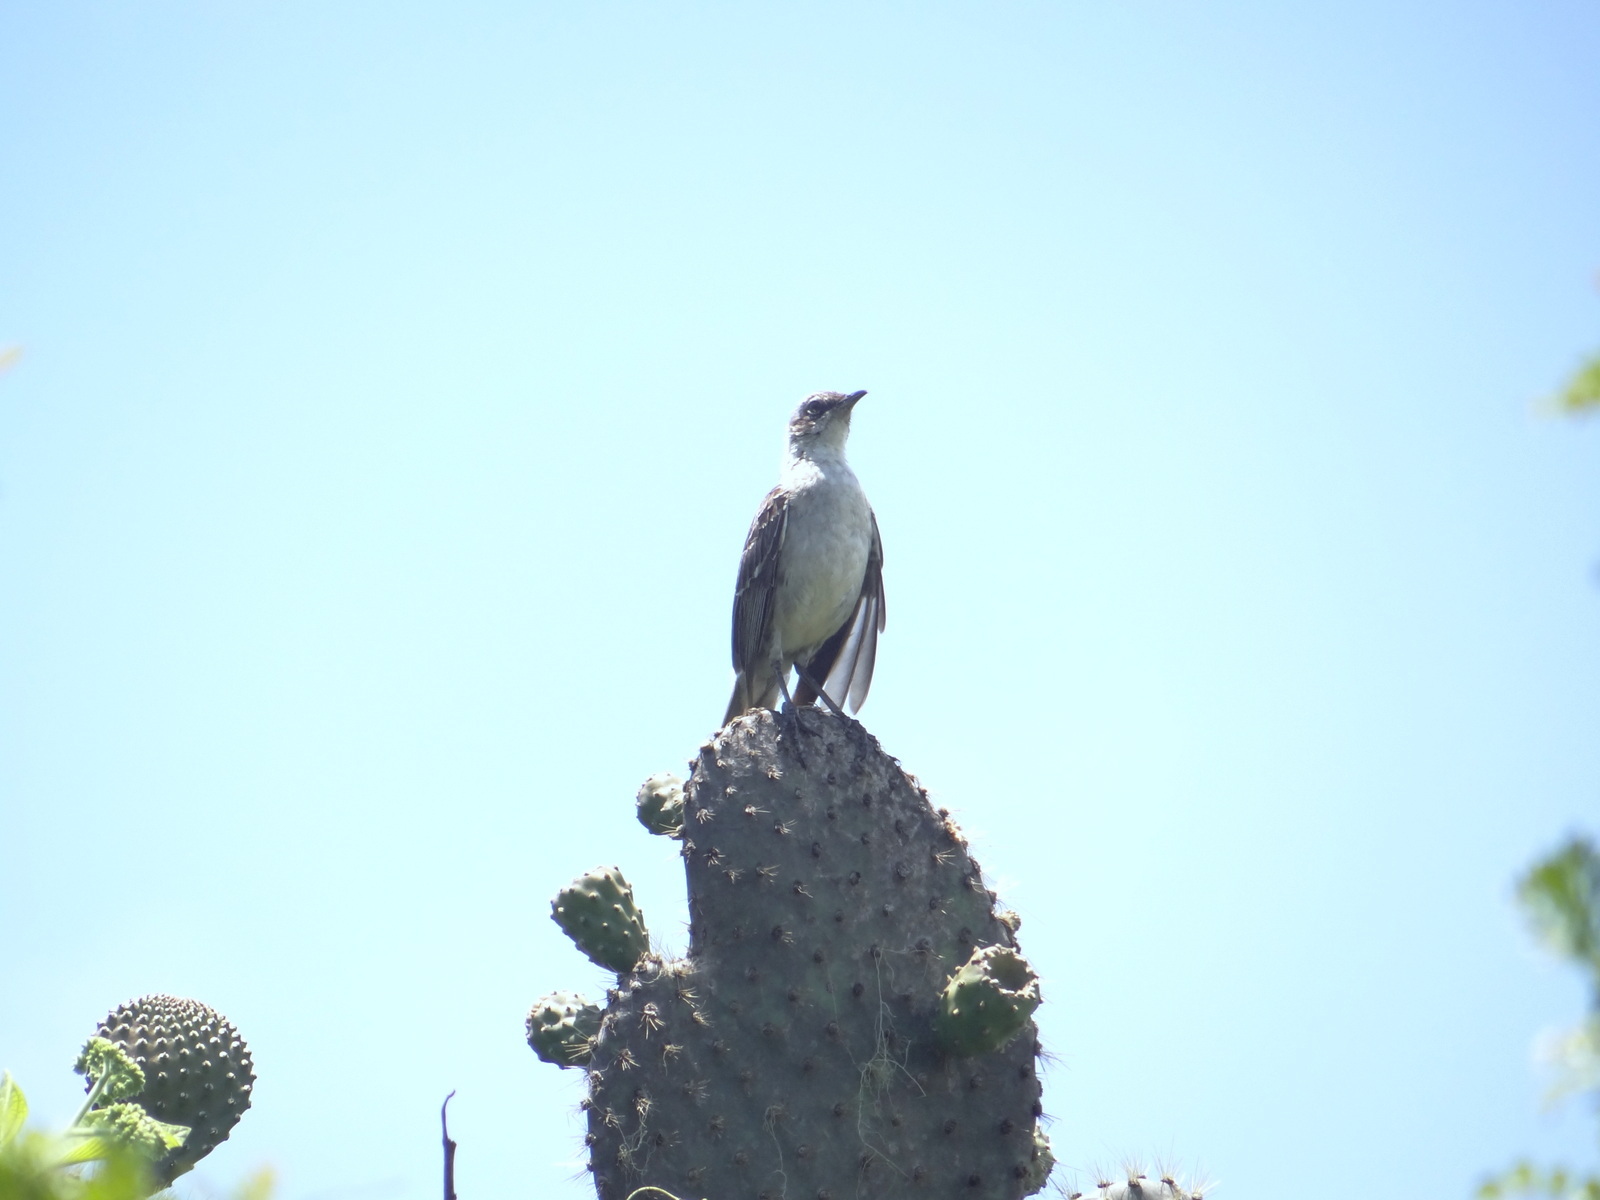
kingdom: Animalia
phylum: Chordata
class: Aves
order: Passeriformes
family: Mimidae
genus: Mimus
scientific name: Mimus parvulus
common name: Galapagos mockingbird
